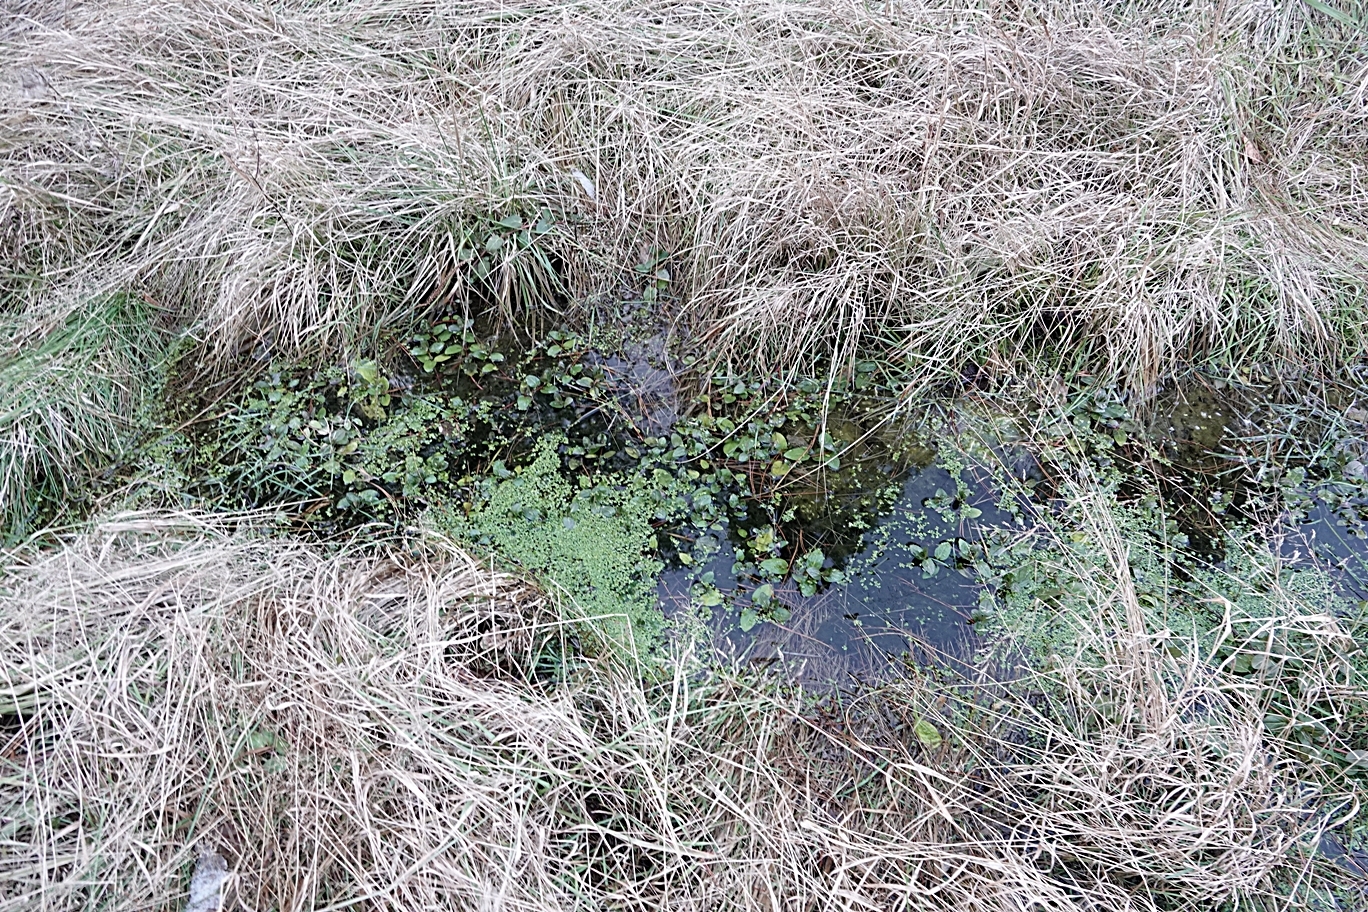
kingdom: Plantae
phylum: Tracheophyta
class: Liliopsida
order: Alismatales
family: Araceae
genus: Lemna
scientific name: Lemna minor
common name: Common duckweed
